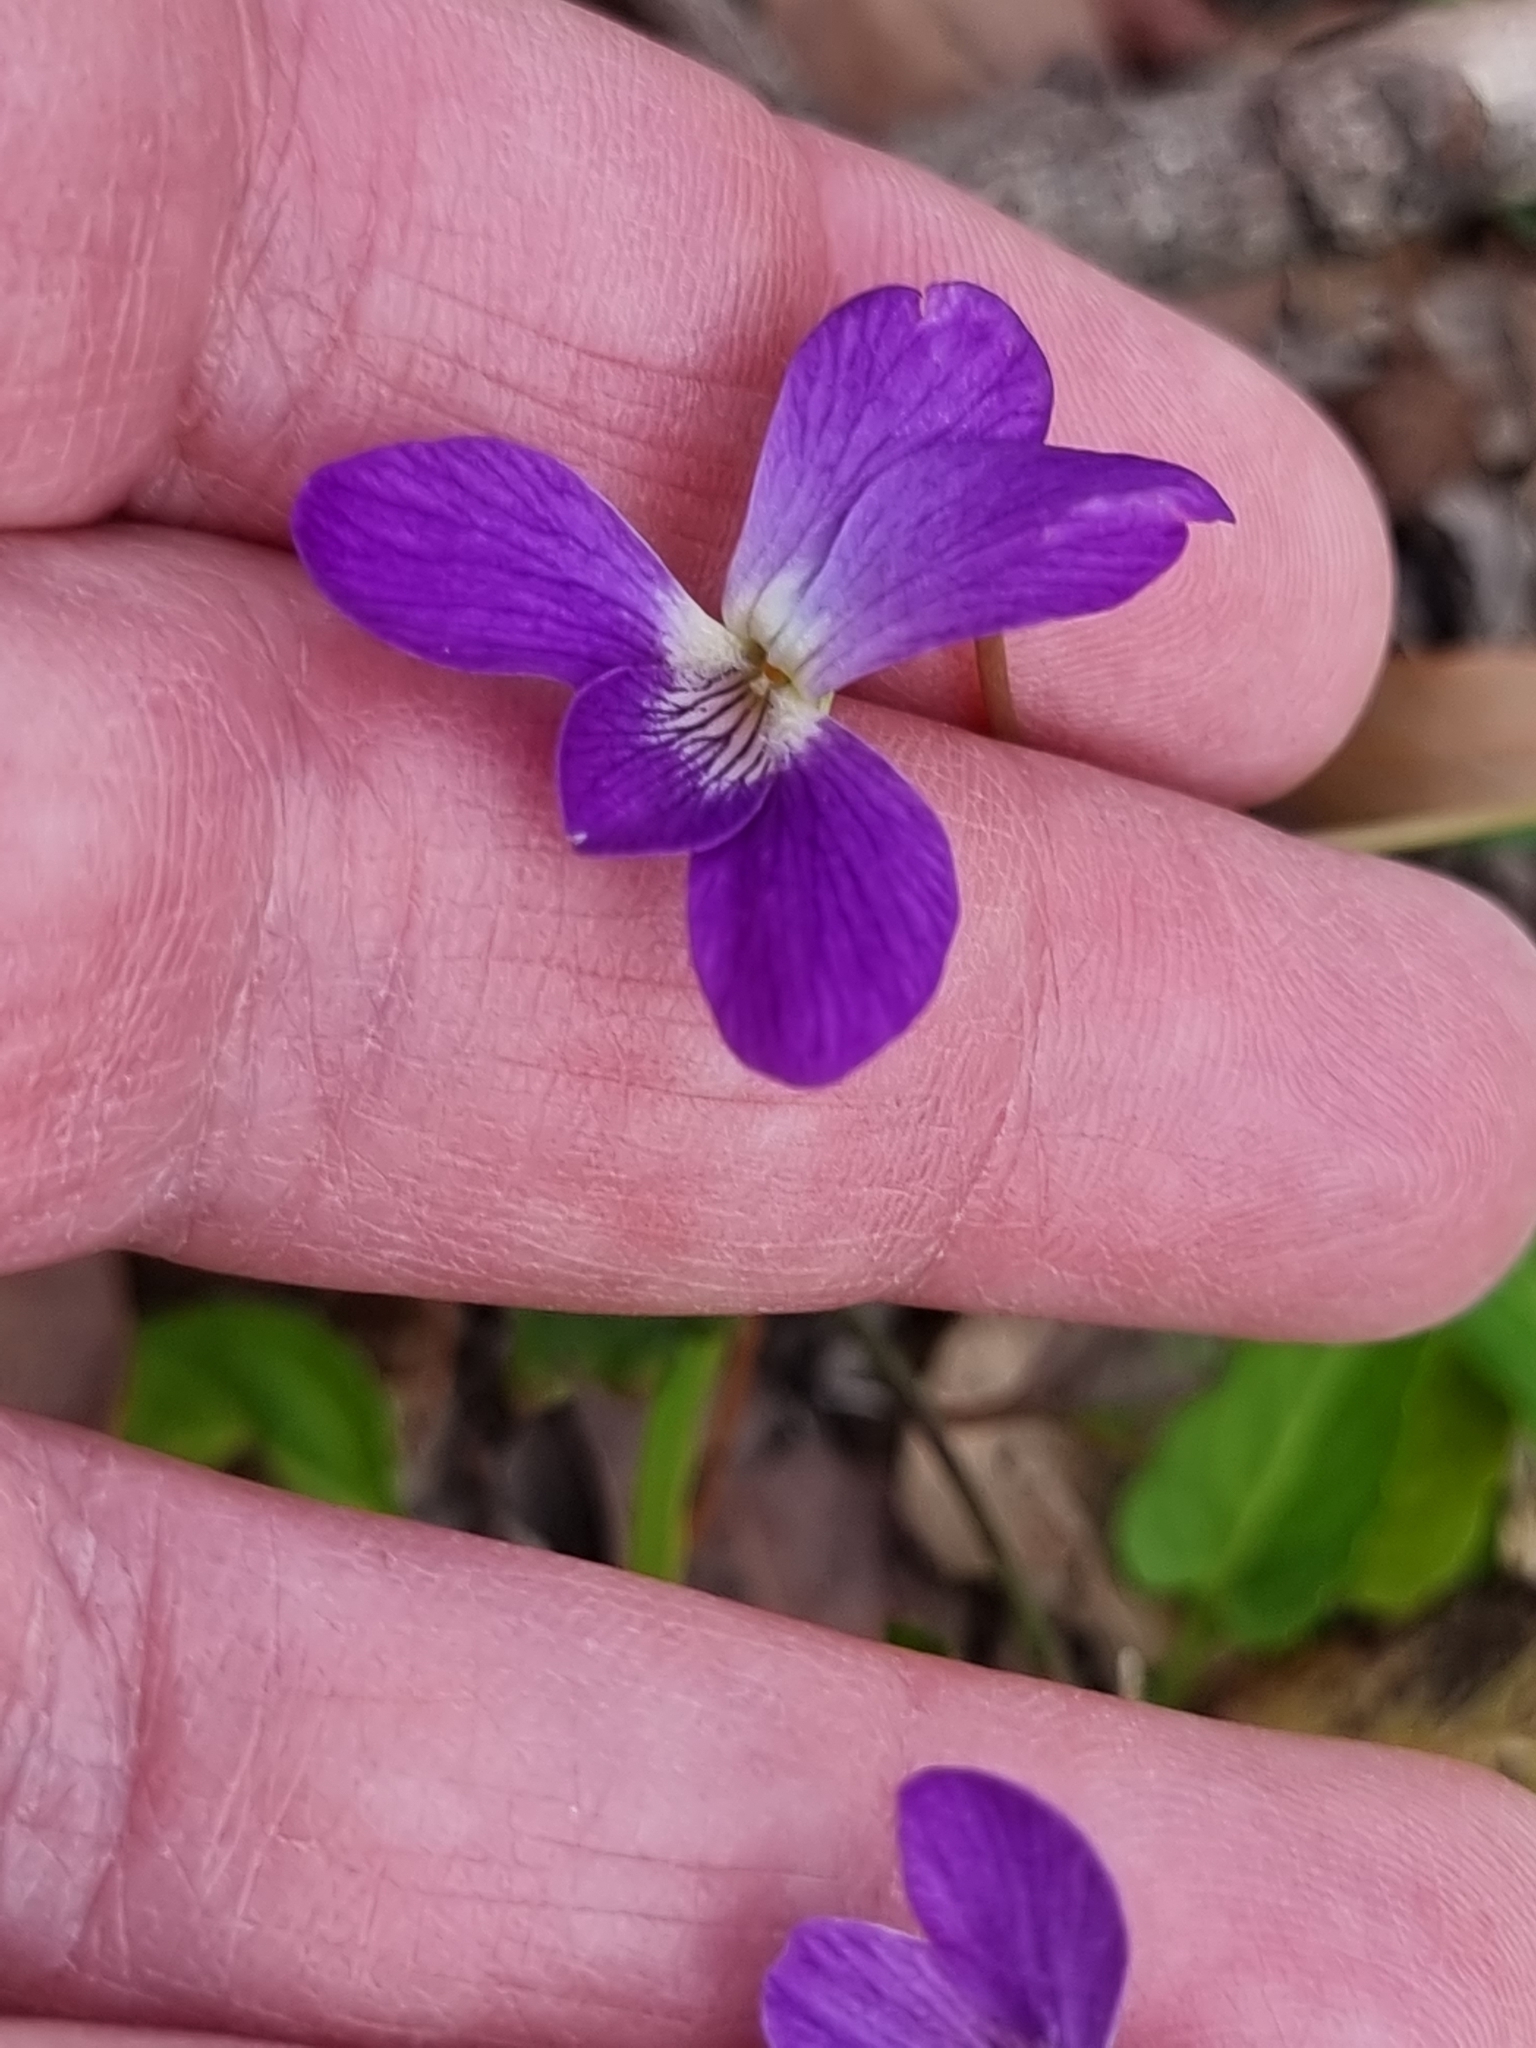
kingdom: Plantae
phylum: Tracheophyta
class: Magnoliopsida
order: Malpighiales
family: Violaceae
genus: Viola
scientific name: Viola betonicifolia
